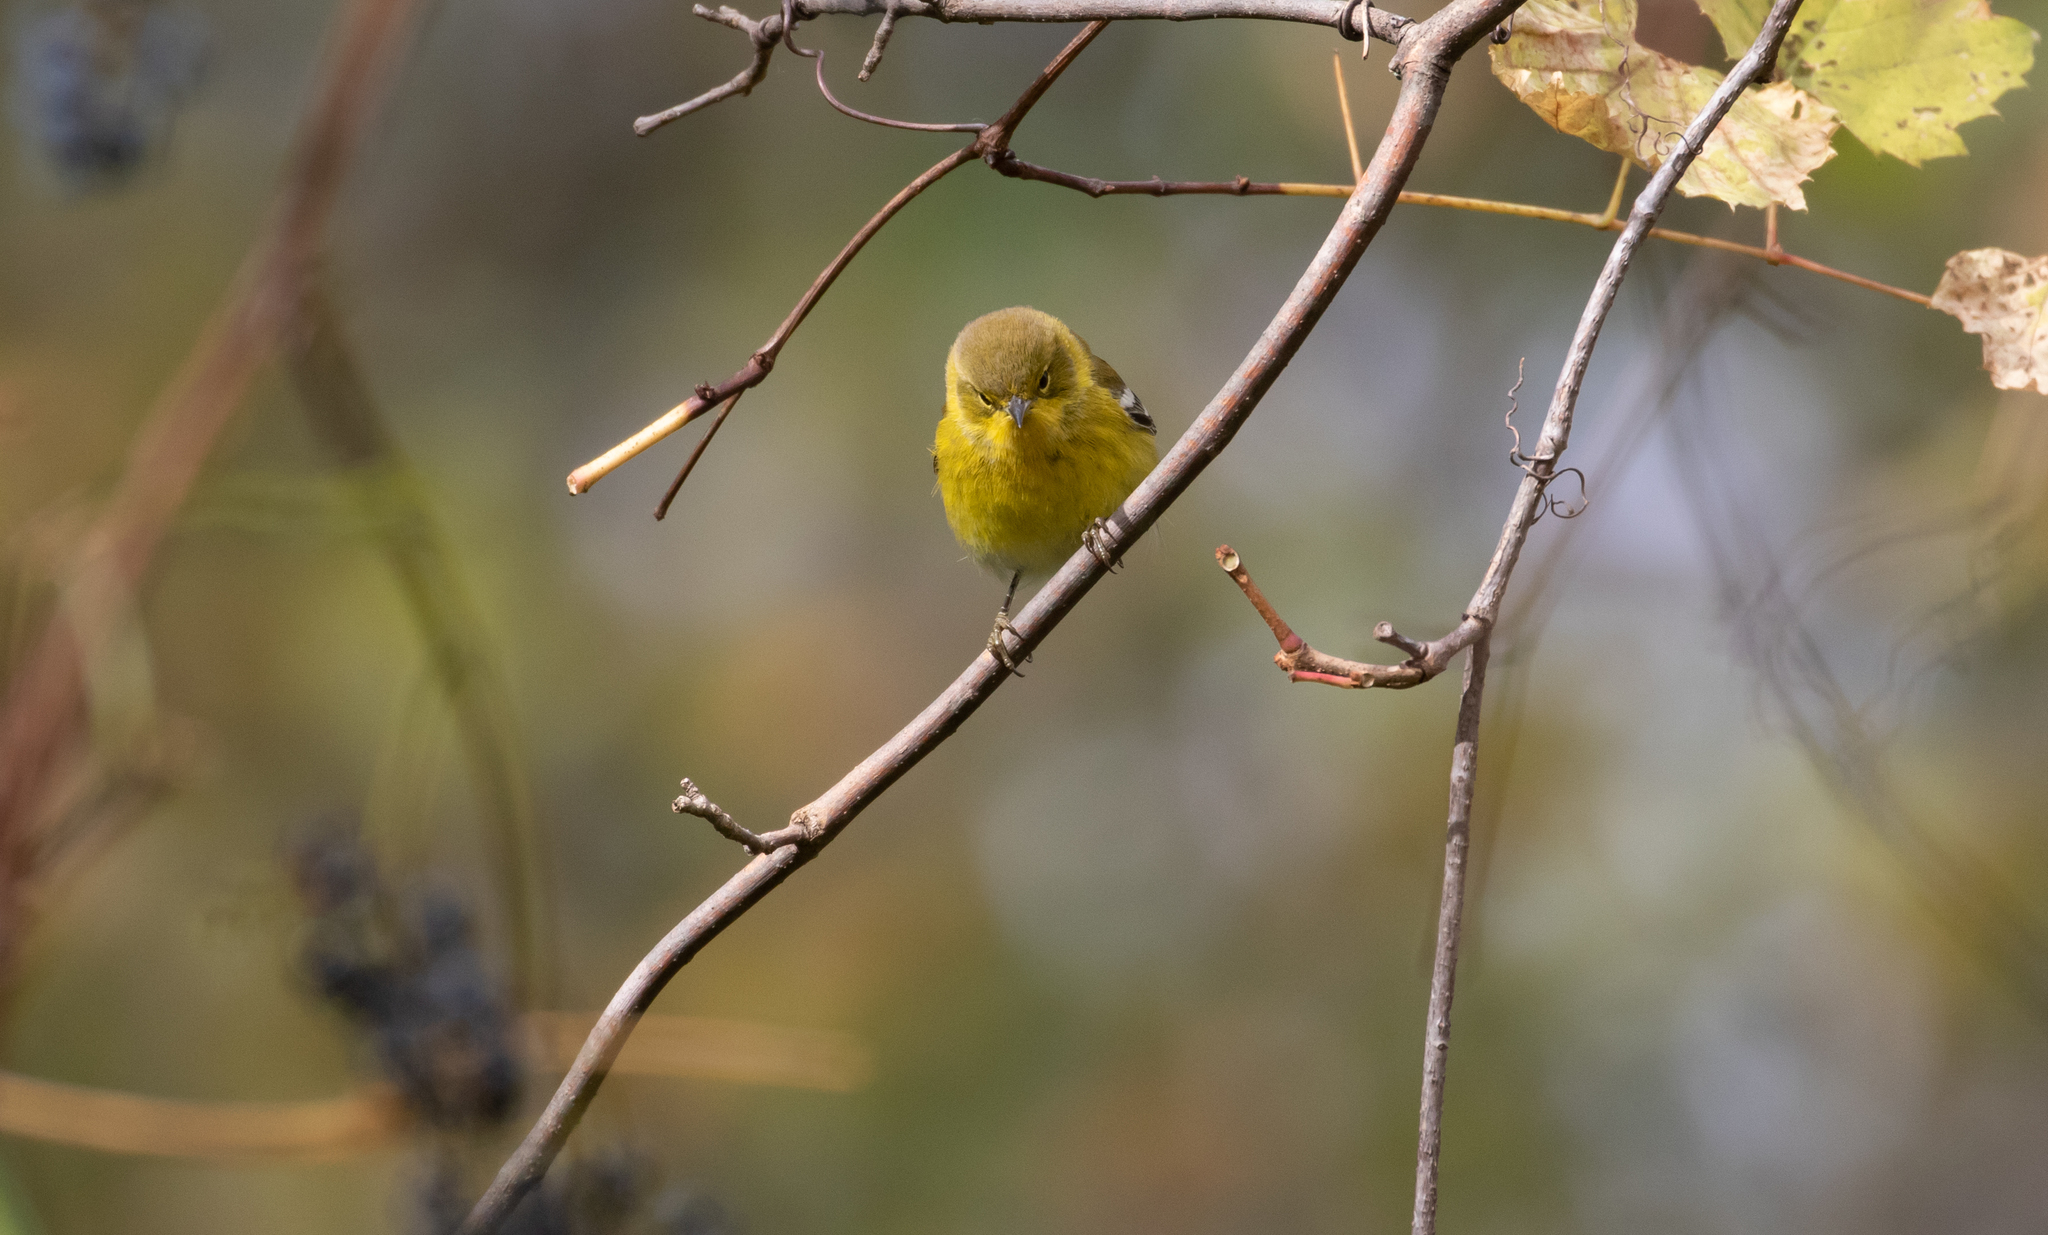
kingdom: Animalia
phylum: Chordata
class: Aves
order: Passeriformes
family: Parulidae
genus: Setophaga
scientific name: Setophaga pinus
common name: Pine warbler
